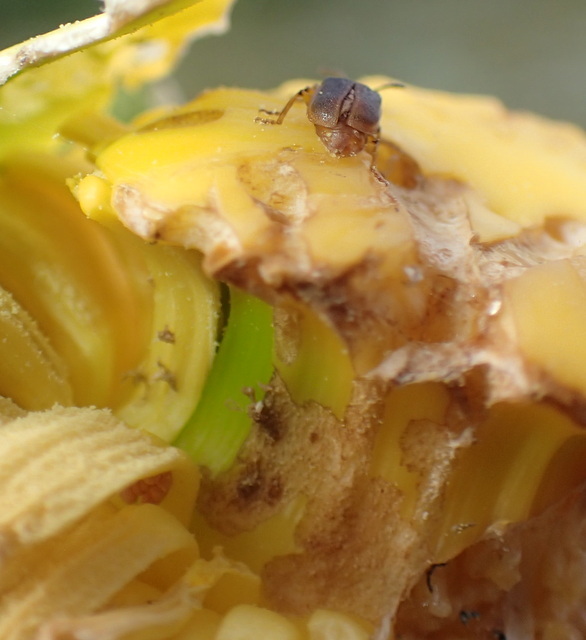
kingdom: Animalia
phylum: Arthropoda
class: Insecta
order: Coleoptera
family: Chrysomelidae
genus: Galerucella
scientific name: Galerucella nymphaeae
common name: Leaf beetle
